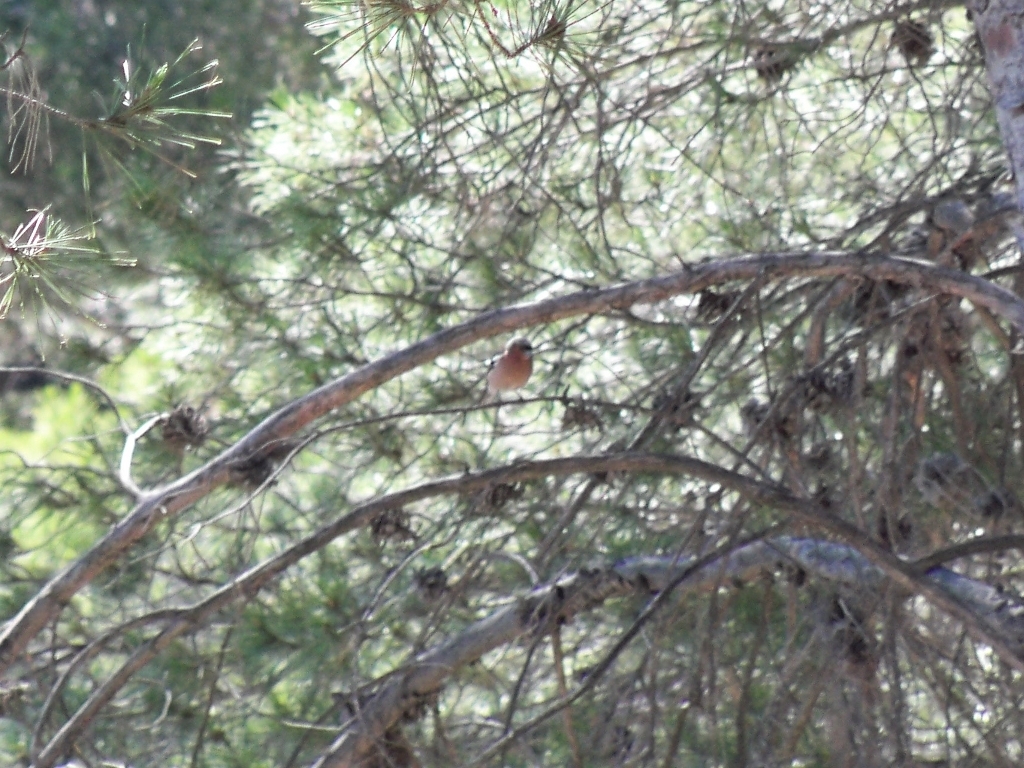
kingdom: Animalia
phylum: Chordata
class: Aves
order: Passeriformes
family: Fringillidae
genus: Fringilla
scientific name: Fringilla coelebs
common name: Common chaffinch
